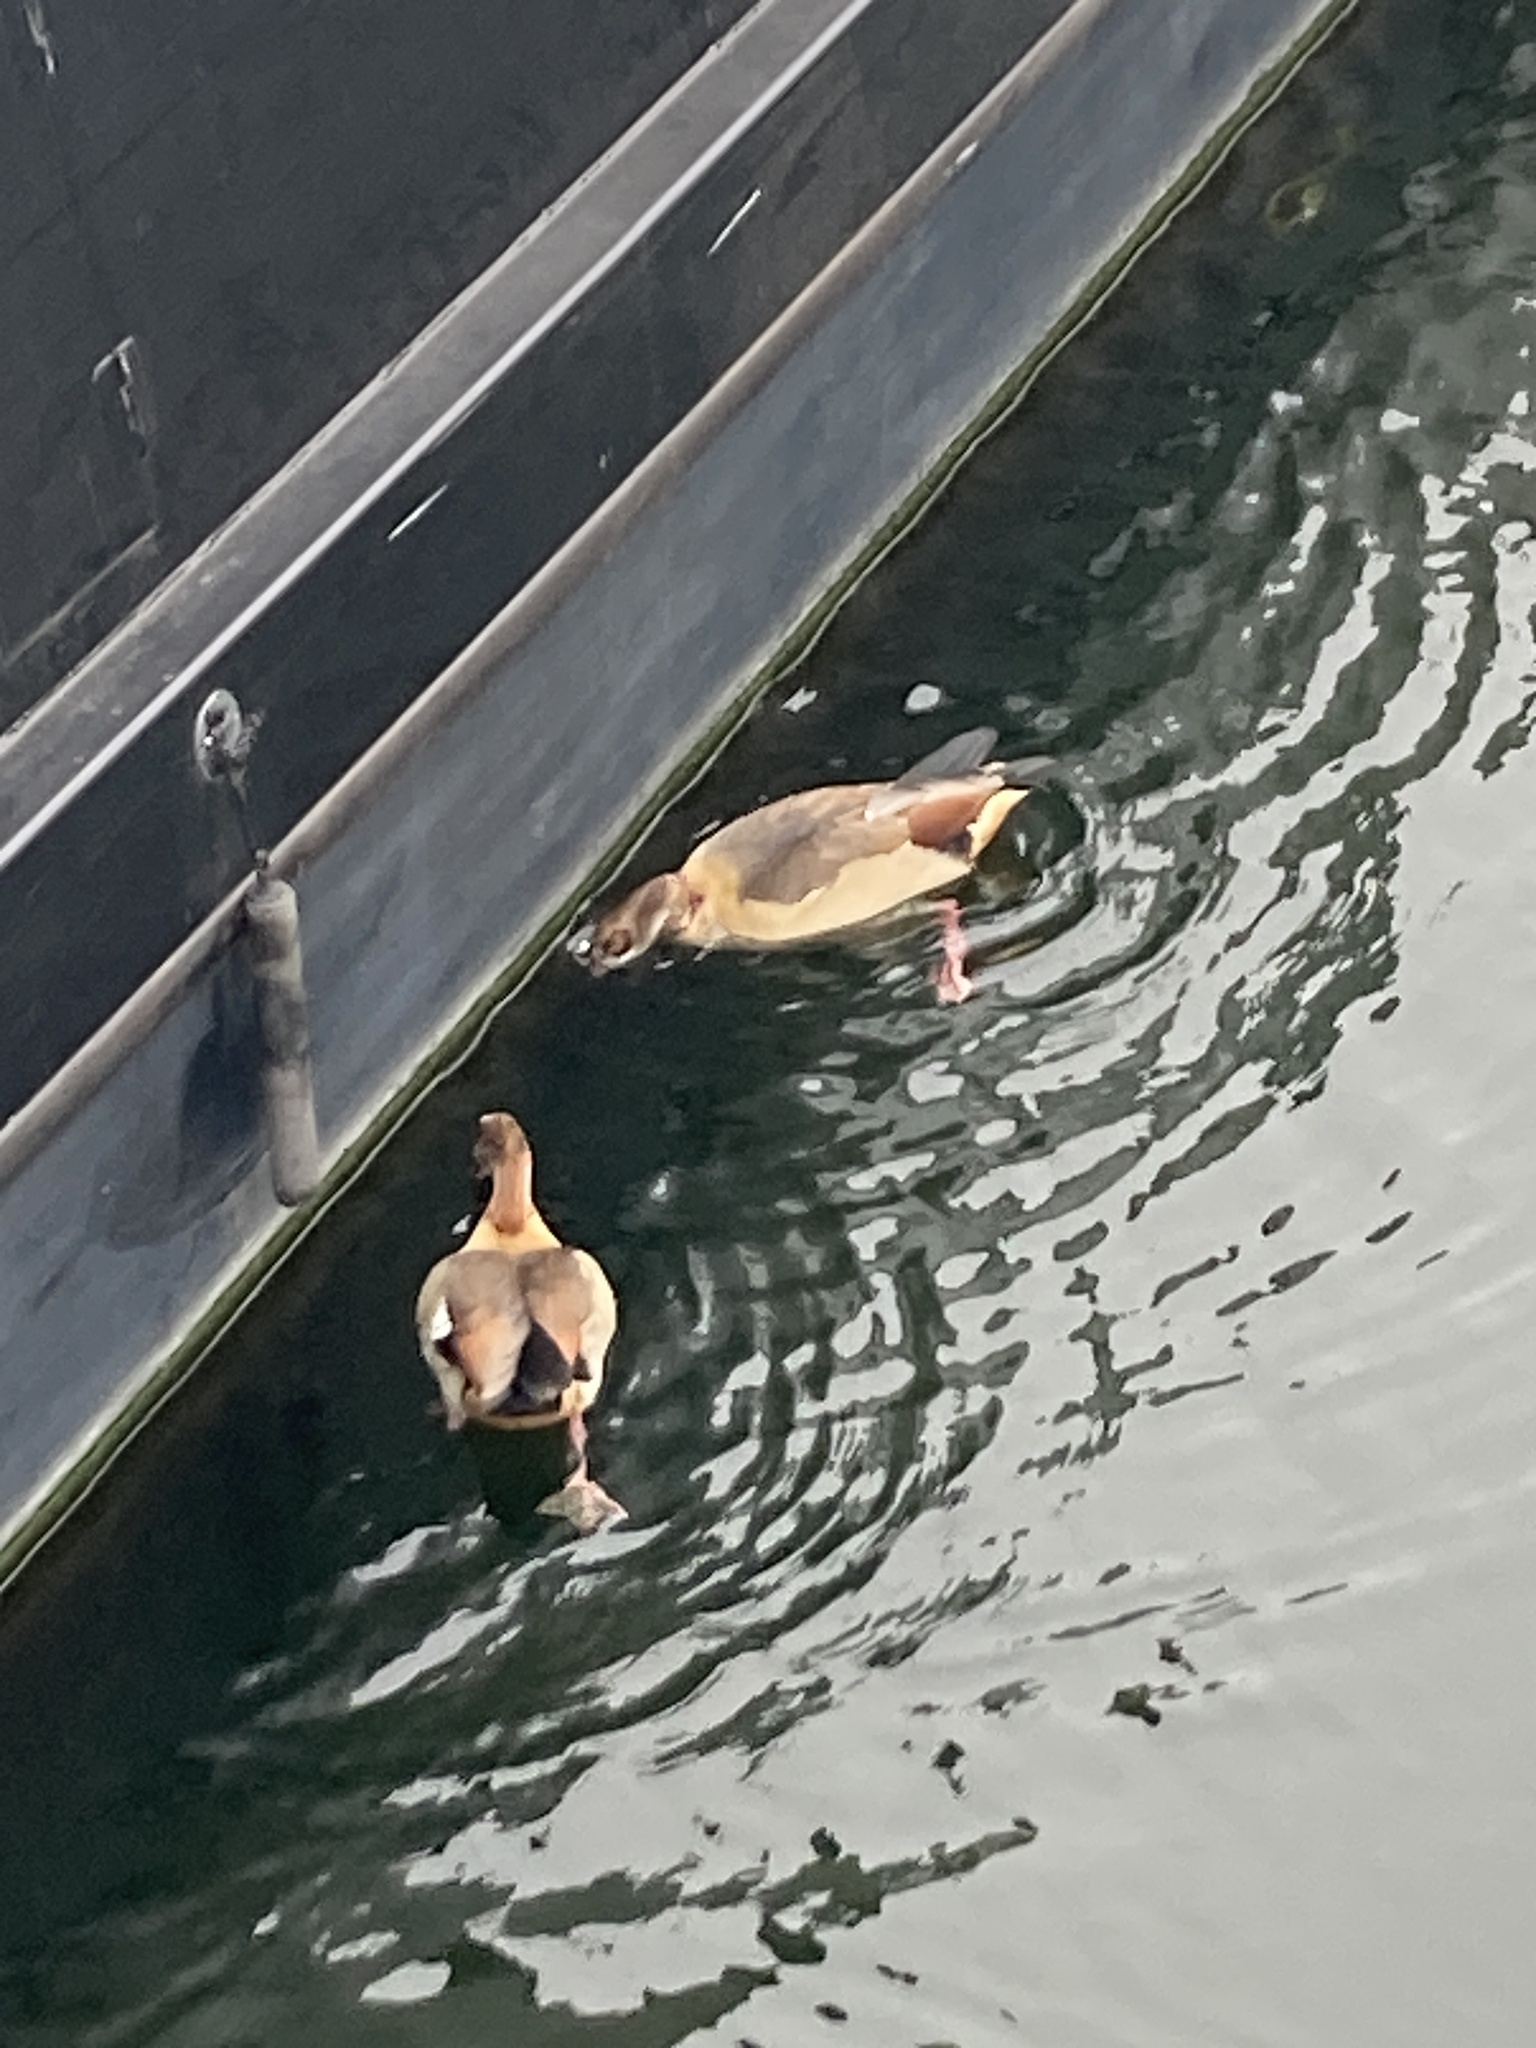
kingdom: Animalia
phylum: Chordata
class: Aves
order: Anseriformes
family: Anatidae
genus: Alopochen
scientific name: Alopochen aegyptiaca
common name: Egyptian goose
